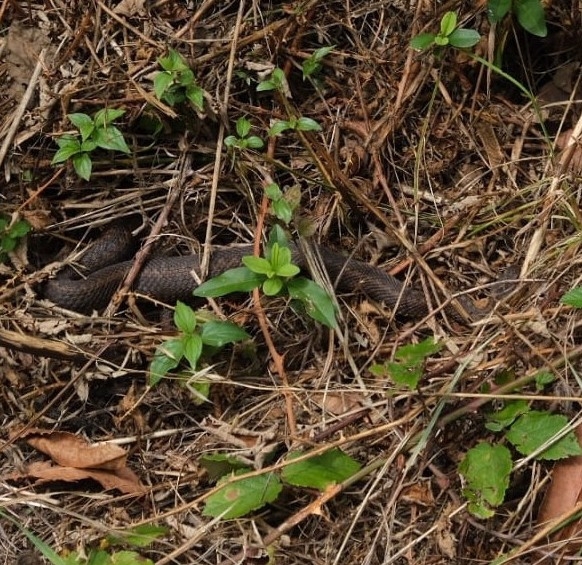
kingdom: Animalia
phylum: Chordata
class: Squamata
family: Viperidae
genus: Vipera
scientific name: Vipera seoanei
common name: Portugese viper
